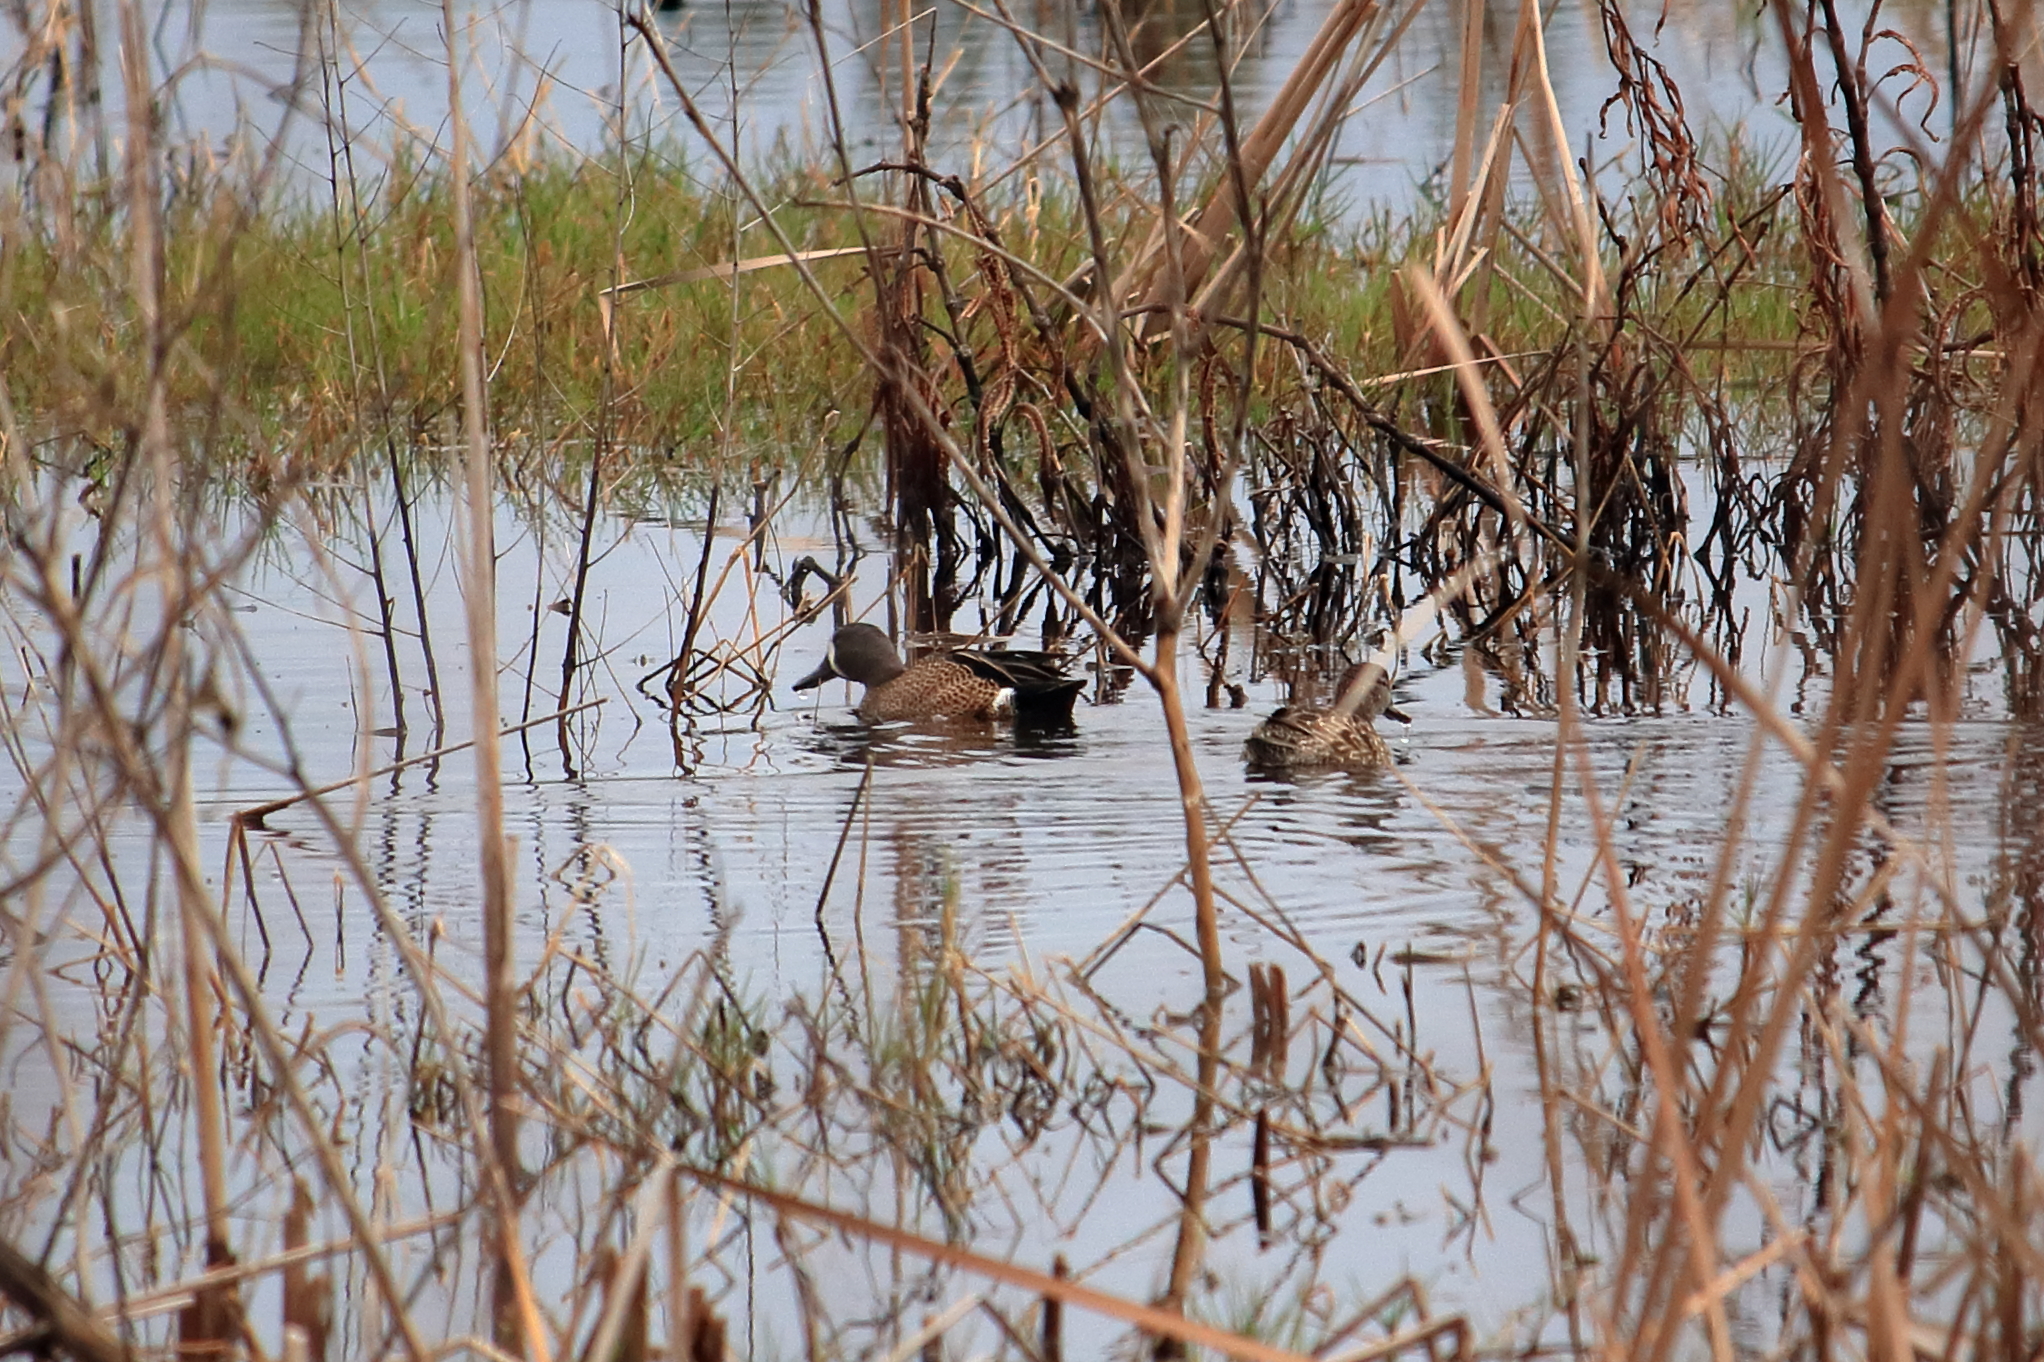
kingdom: Animalia
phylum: Chordata
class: Aves
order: Anseriformes
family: Anatidae
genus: Spatula
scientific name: Spatula discors
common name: Blue-winged teal
